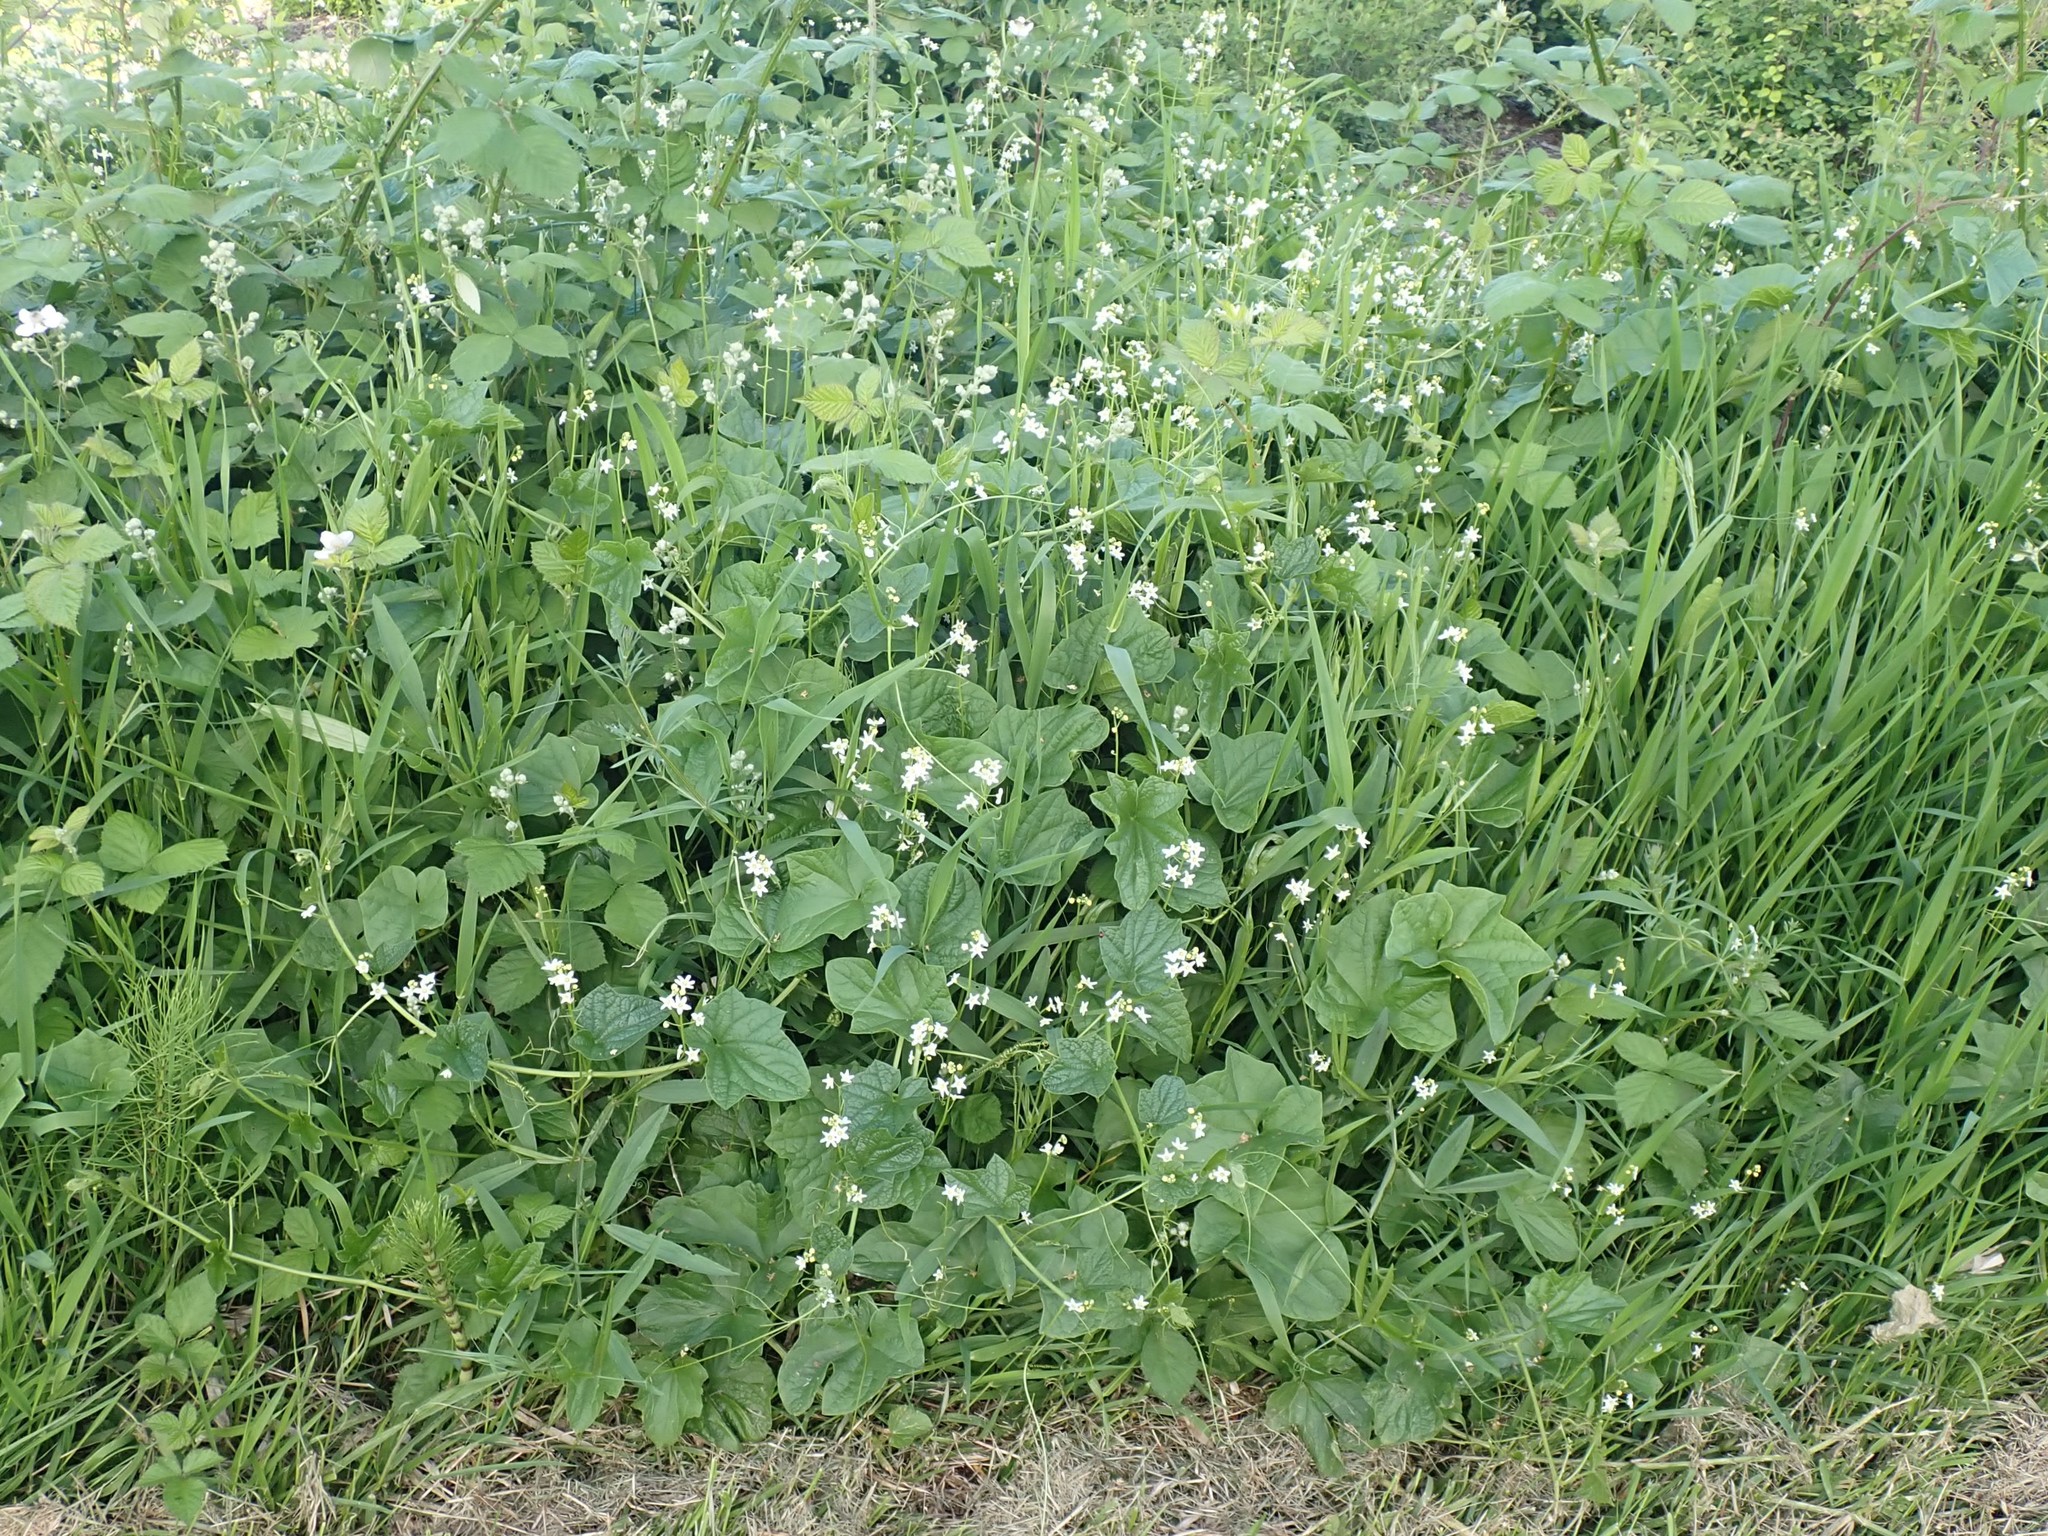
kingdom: Plantae
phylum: Tracheophyta
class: Magnoliopsida
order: Cucurbitales
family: Cucurbitaceae
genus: Marah
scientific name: Marah oregana
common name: Coastal manroot
